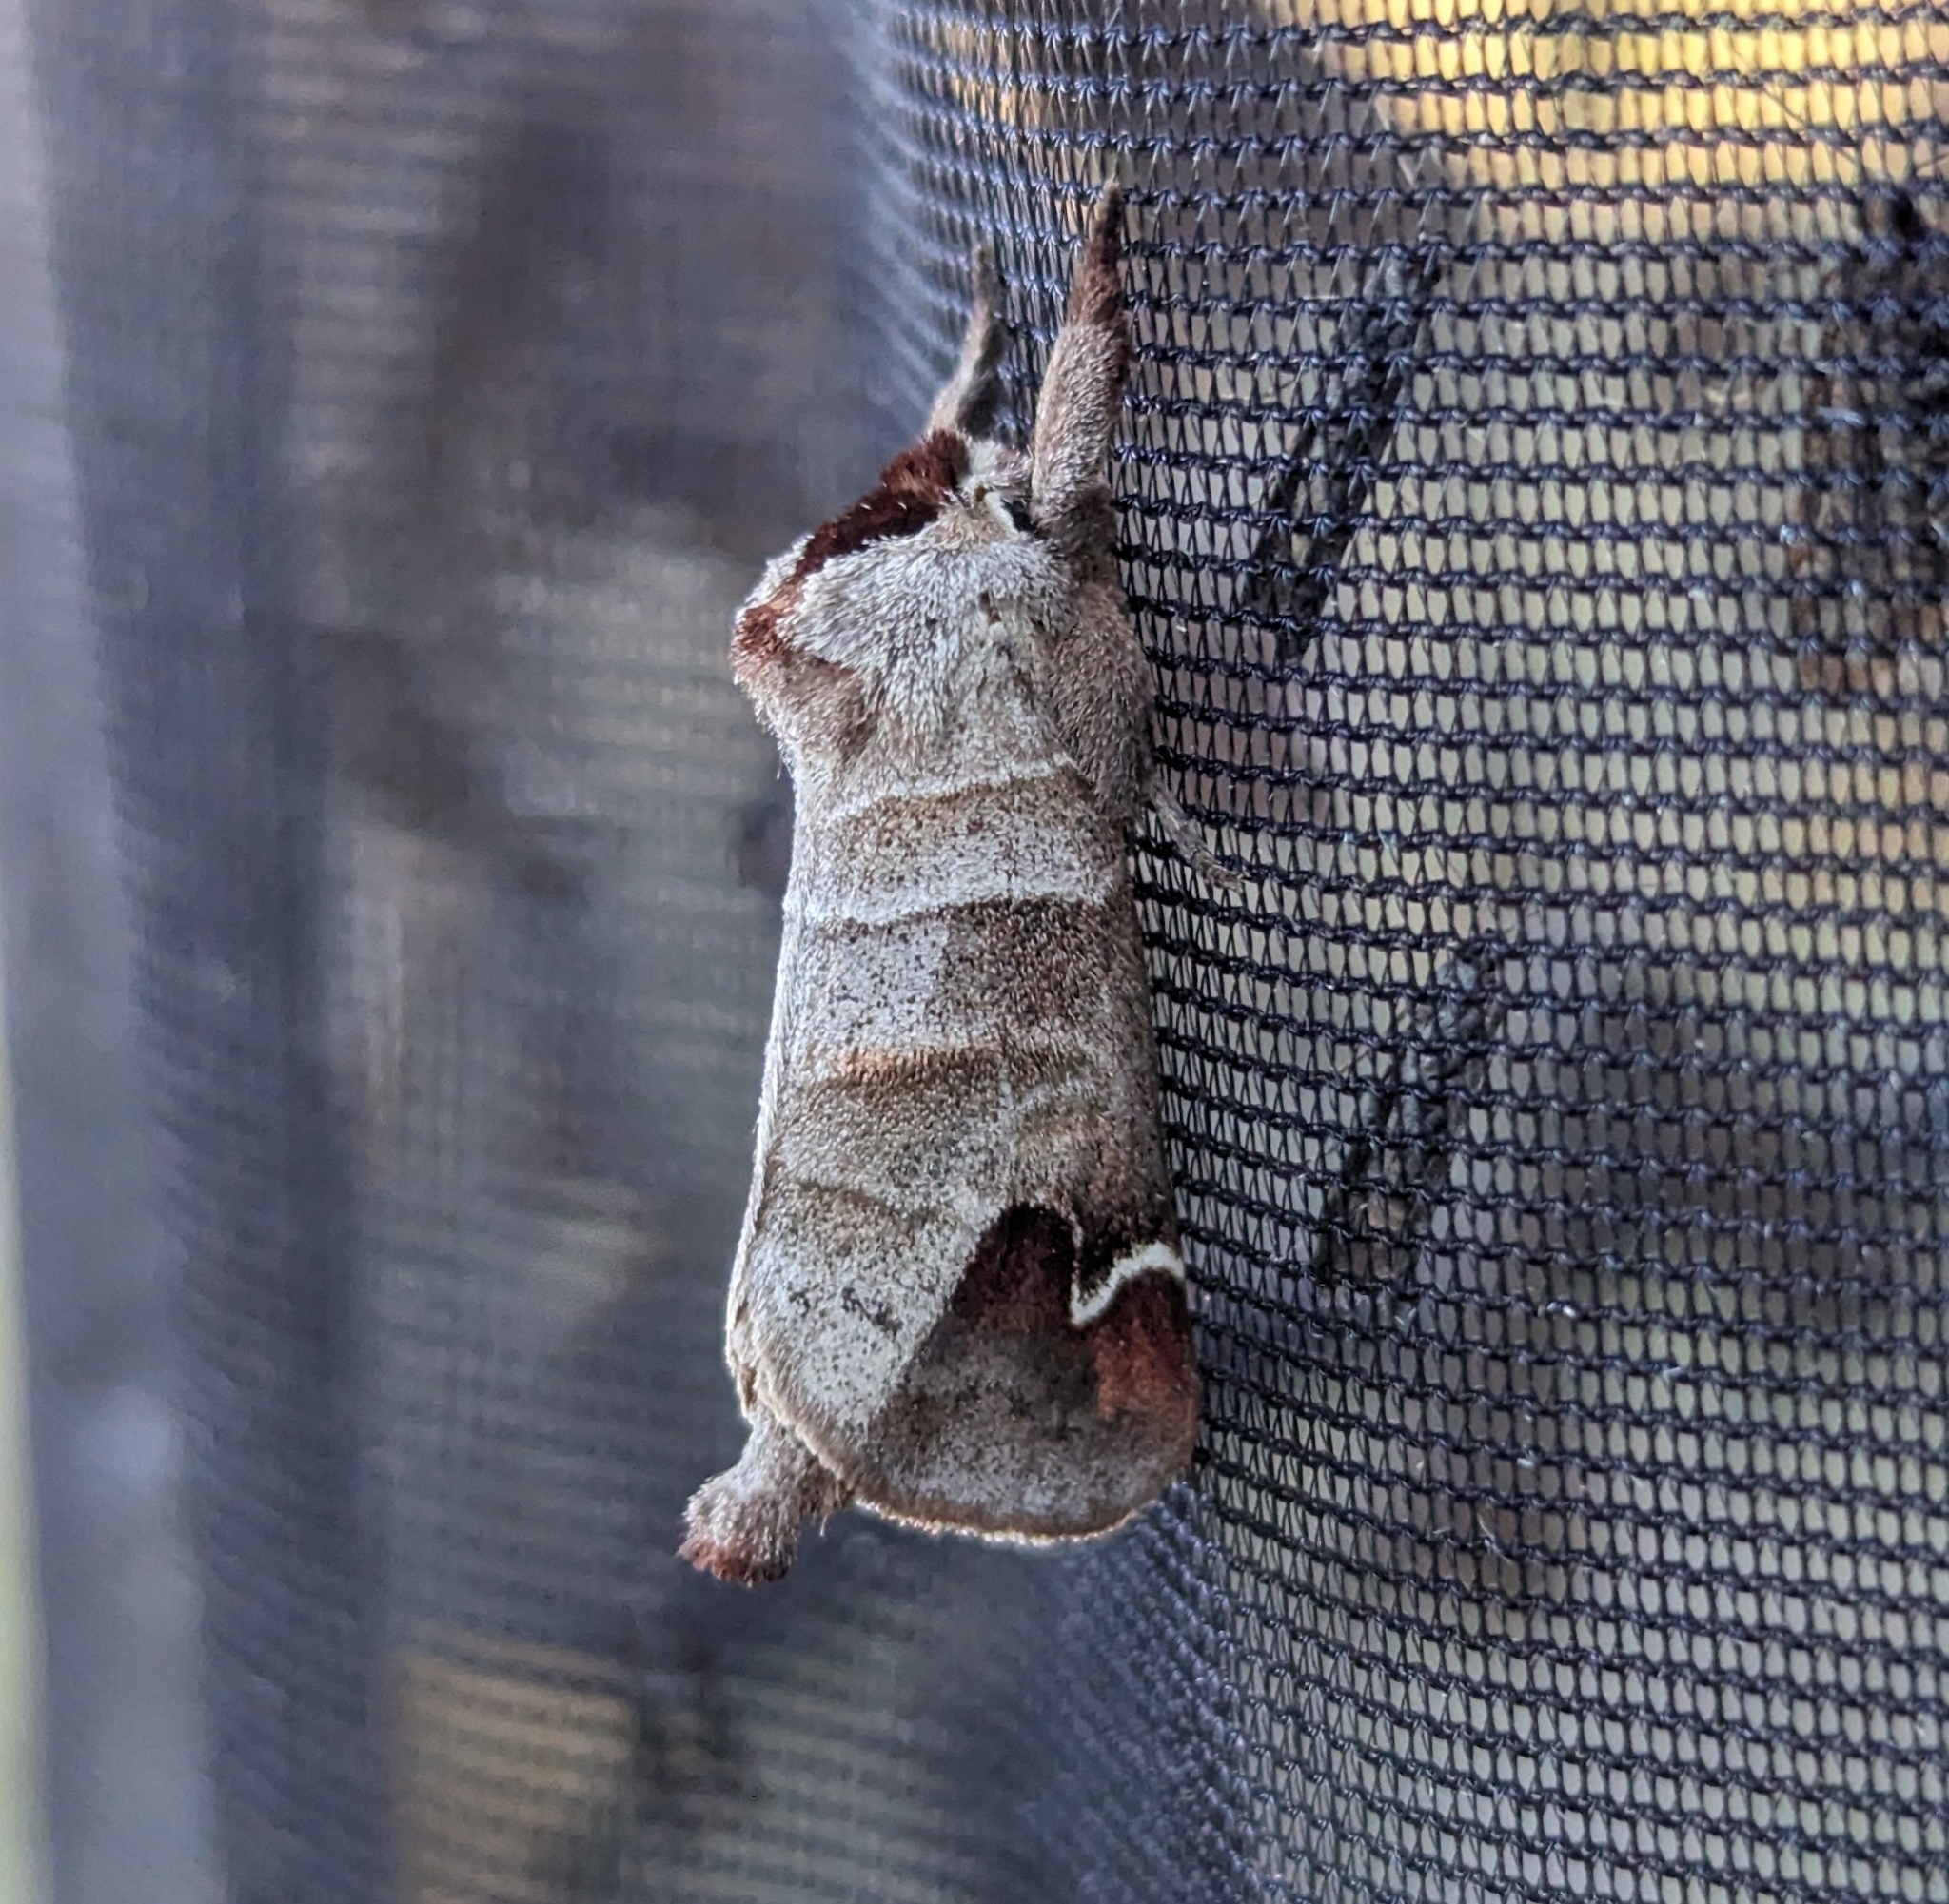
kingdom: Animalia
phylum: Arthropoda
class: Insecta
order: Lepidoptera
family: Notodontidae
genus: Clostera
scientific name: Clostera albosigma
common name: Sigmoid prominent
